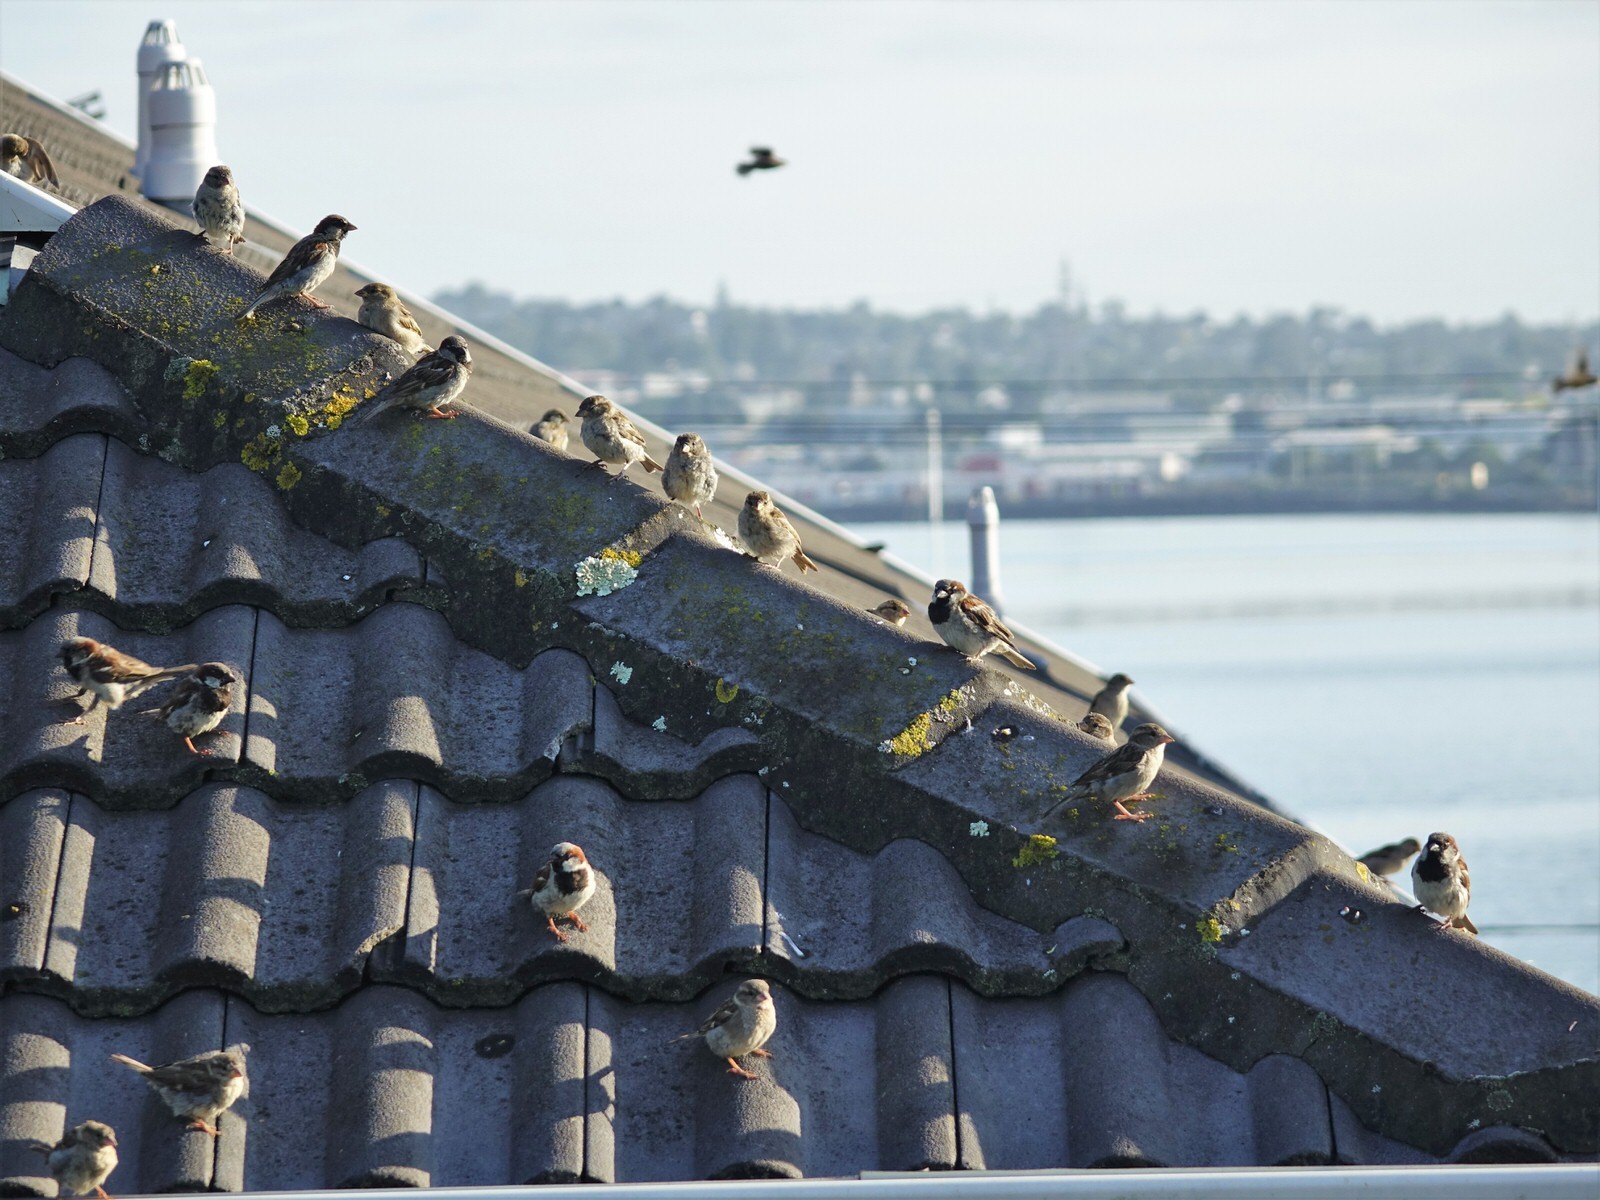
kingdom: Animalia
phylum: Chordata
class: Aves
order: Passeriformes
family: Passeridae
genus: Passer
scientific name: Passer domesticus
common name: House sparrow
